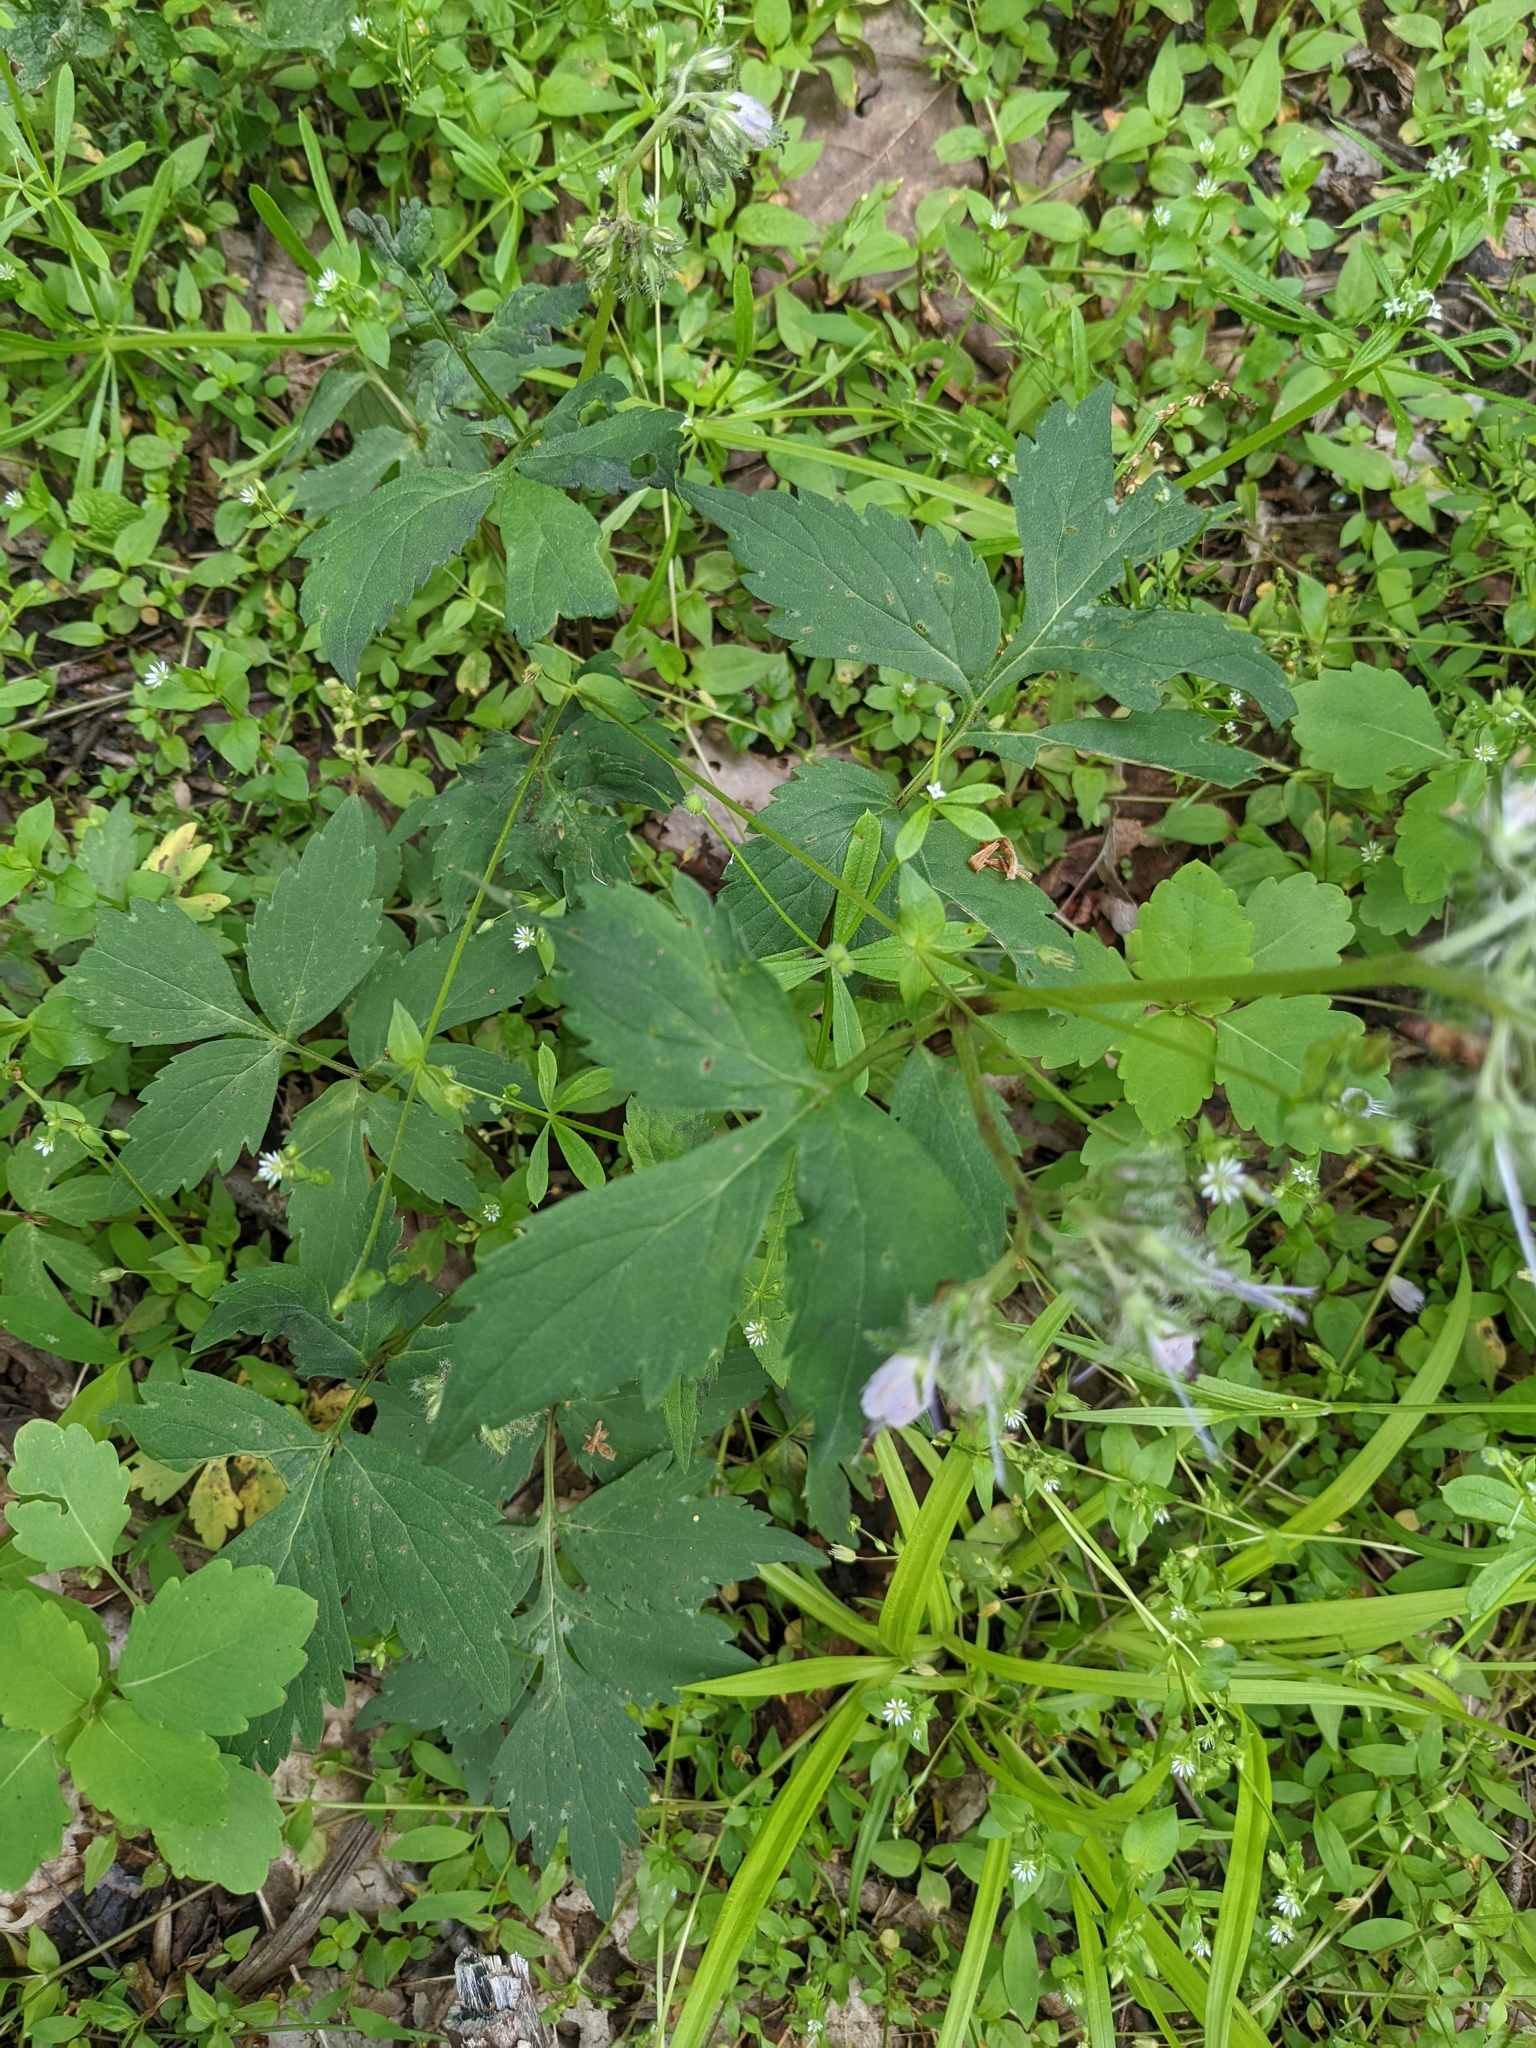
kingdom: Plantae
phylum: Tracheophyta
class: Magnoliopsida
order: Boraginales
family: Hydrophyllaceae
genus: Hydrophyllum
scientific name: Hydrophyllum virginianum
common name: Virginia waterleaf
